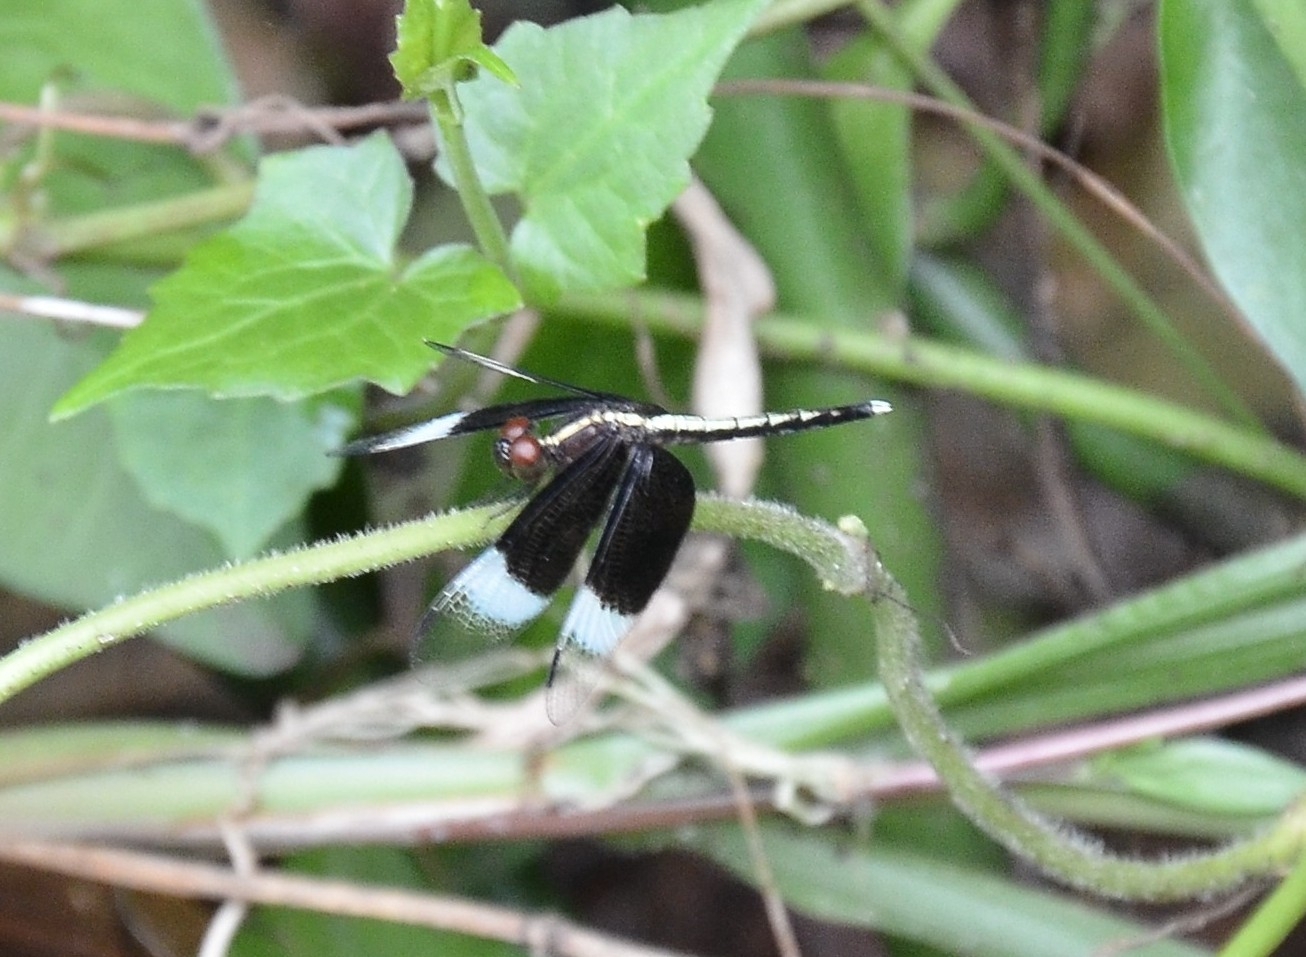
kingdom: Animalia
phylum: Arthropoda
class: Insecta
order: Odonata
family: Libellulidae
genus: Neurothemis
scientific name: Neurothemis tullia
